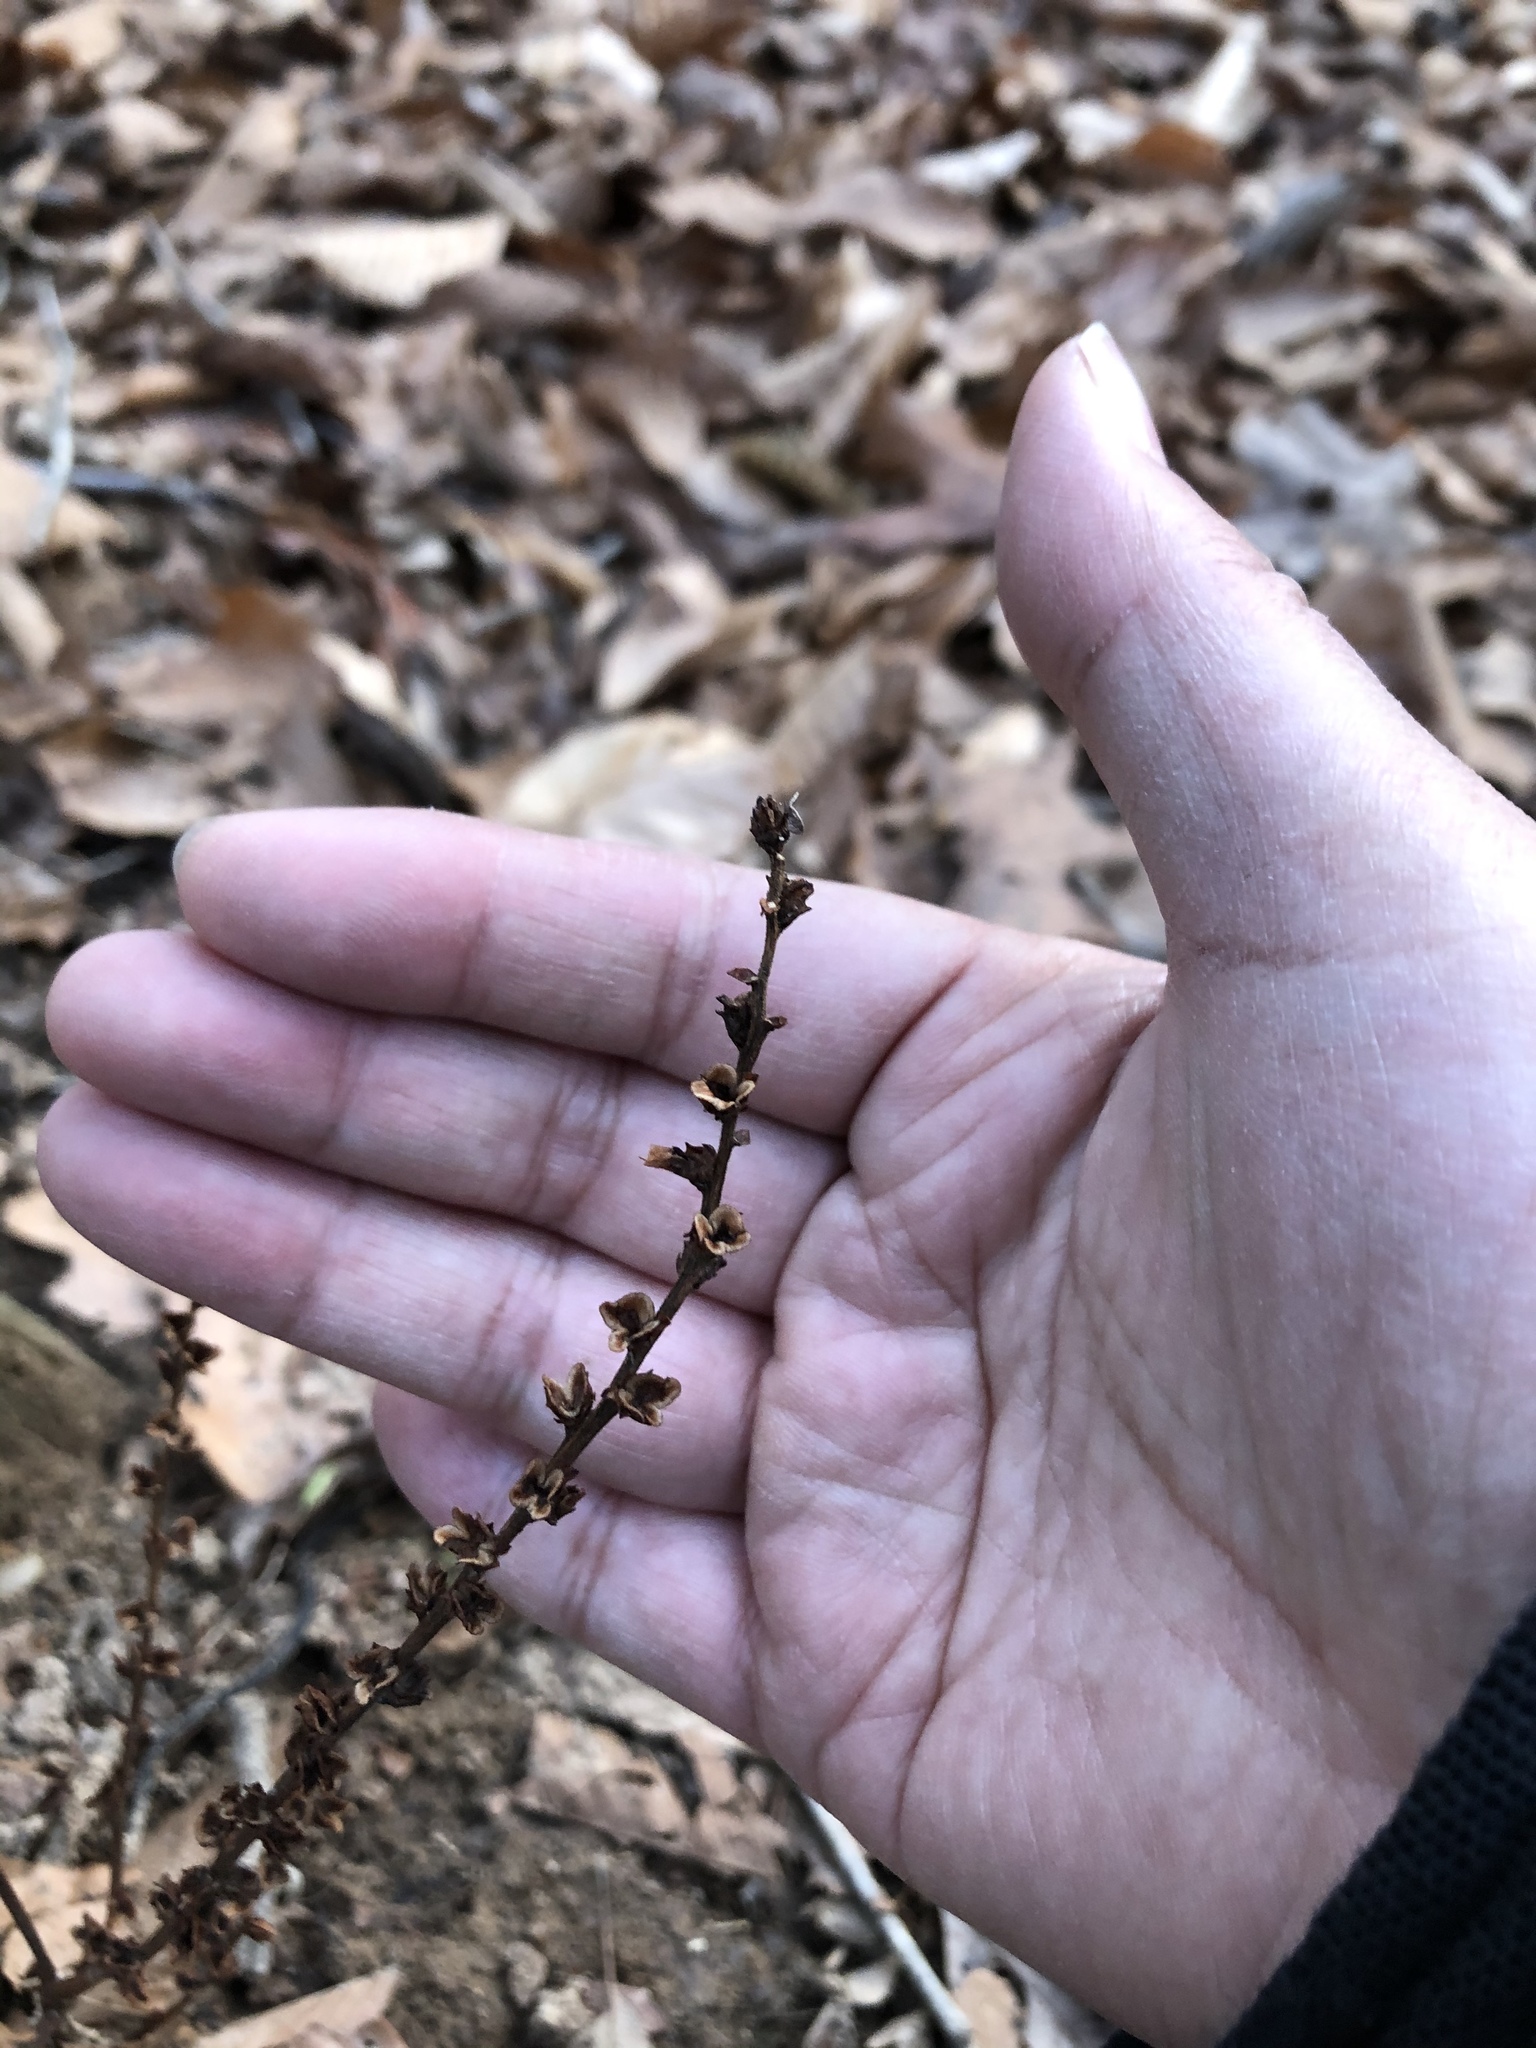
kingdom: Plantae
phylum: Tracheophyta
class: Magnoliopsida
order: Lamiales
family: Orobanchaceae
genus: Epifagus
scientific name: Epifagus virginiana
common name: Beechdrops
